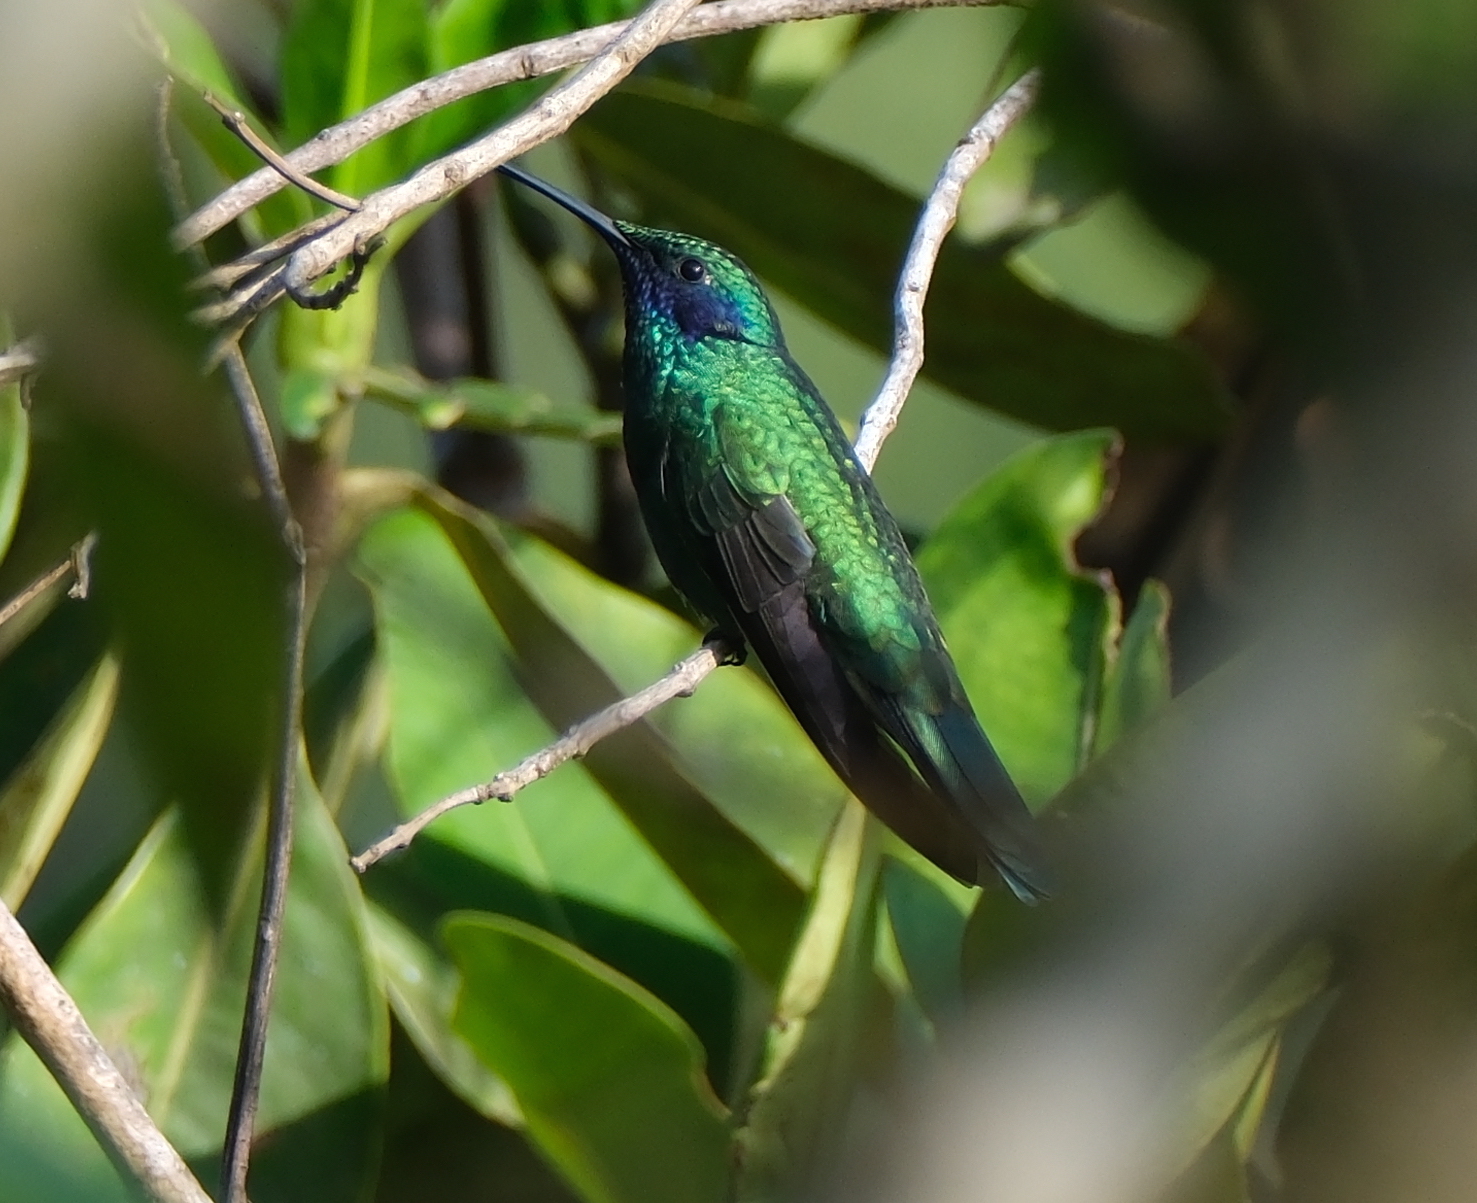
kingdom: Animalia
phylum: Chordata
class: Aves
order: Apodiformes
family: Trochilidae
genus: Colibri
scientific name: Colibri coruscans
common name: Sparkling violetear
